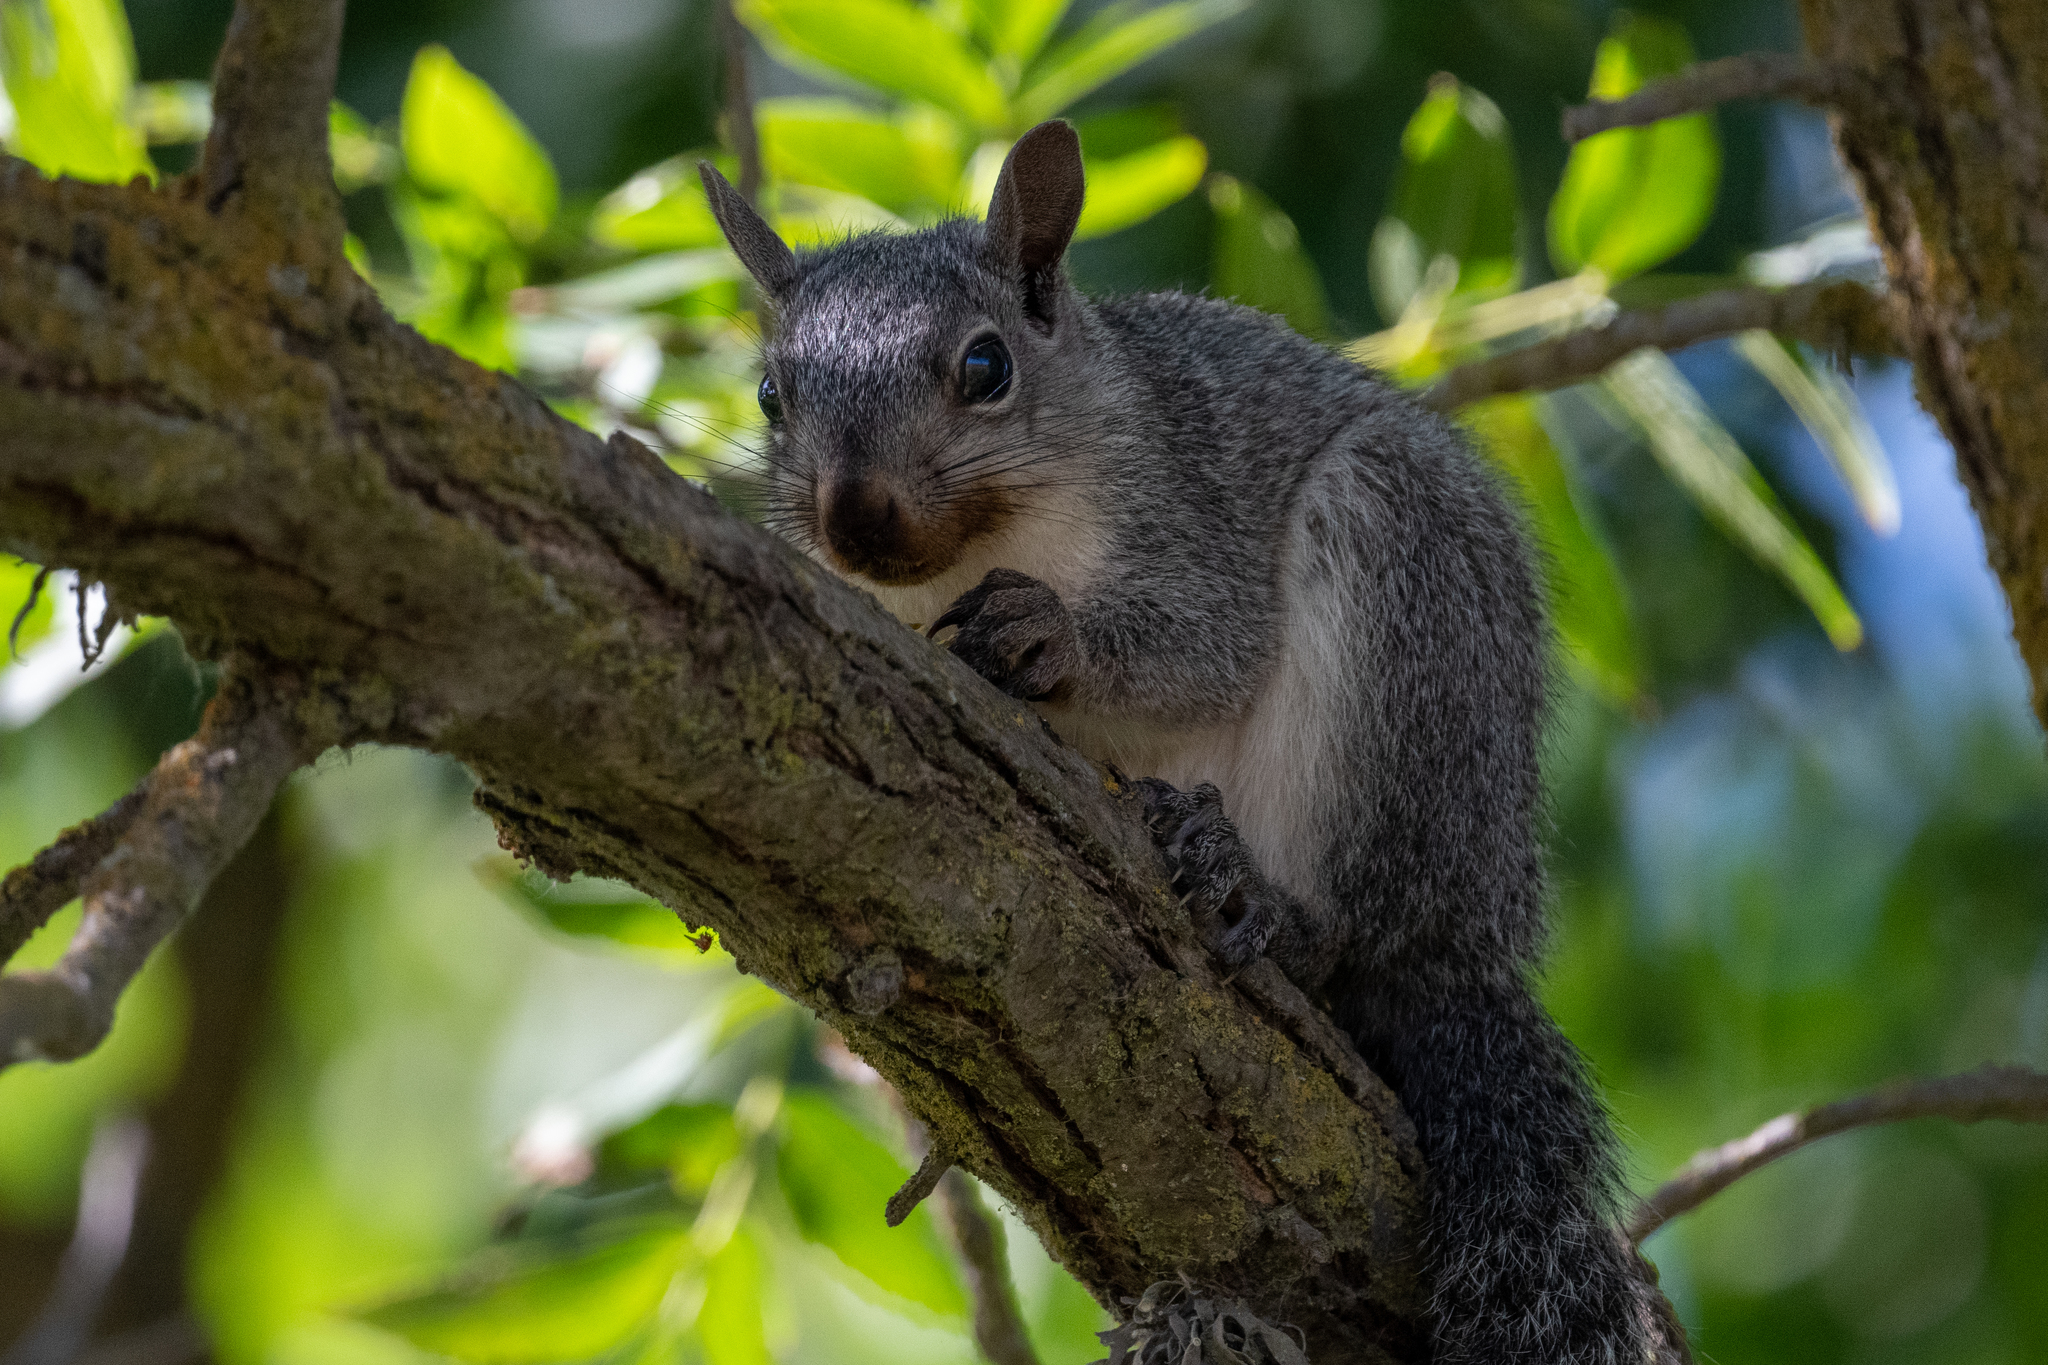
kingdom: Animalia
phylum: Chordata
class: Mammalia
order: Rodentia
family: Sciuridae
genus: Sciurus
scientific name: Sciurus griseus
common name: Western gray squirrel
